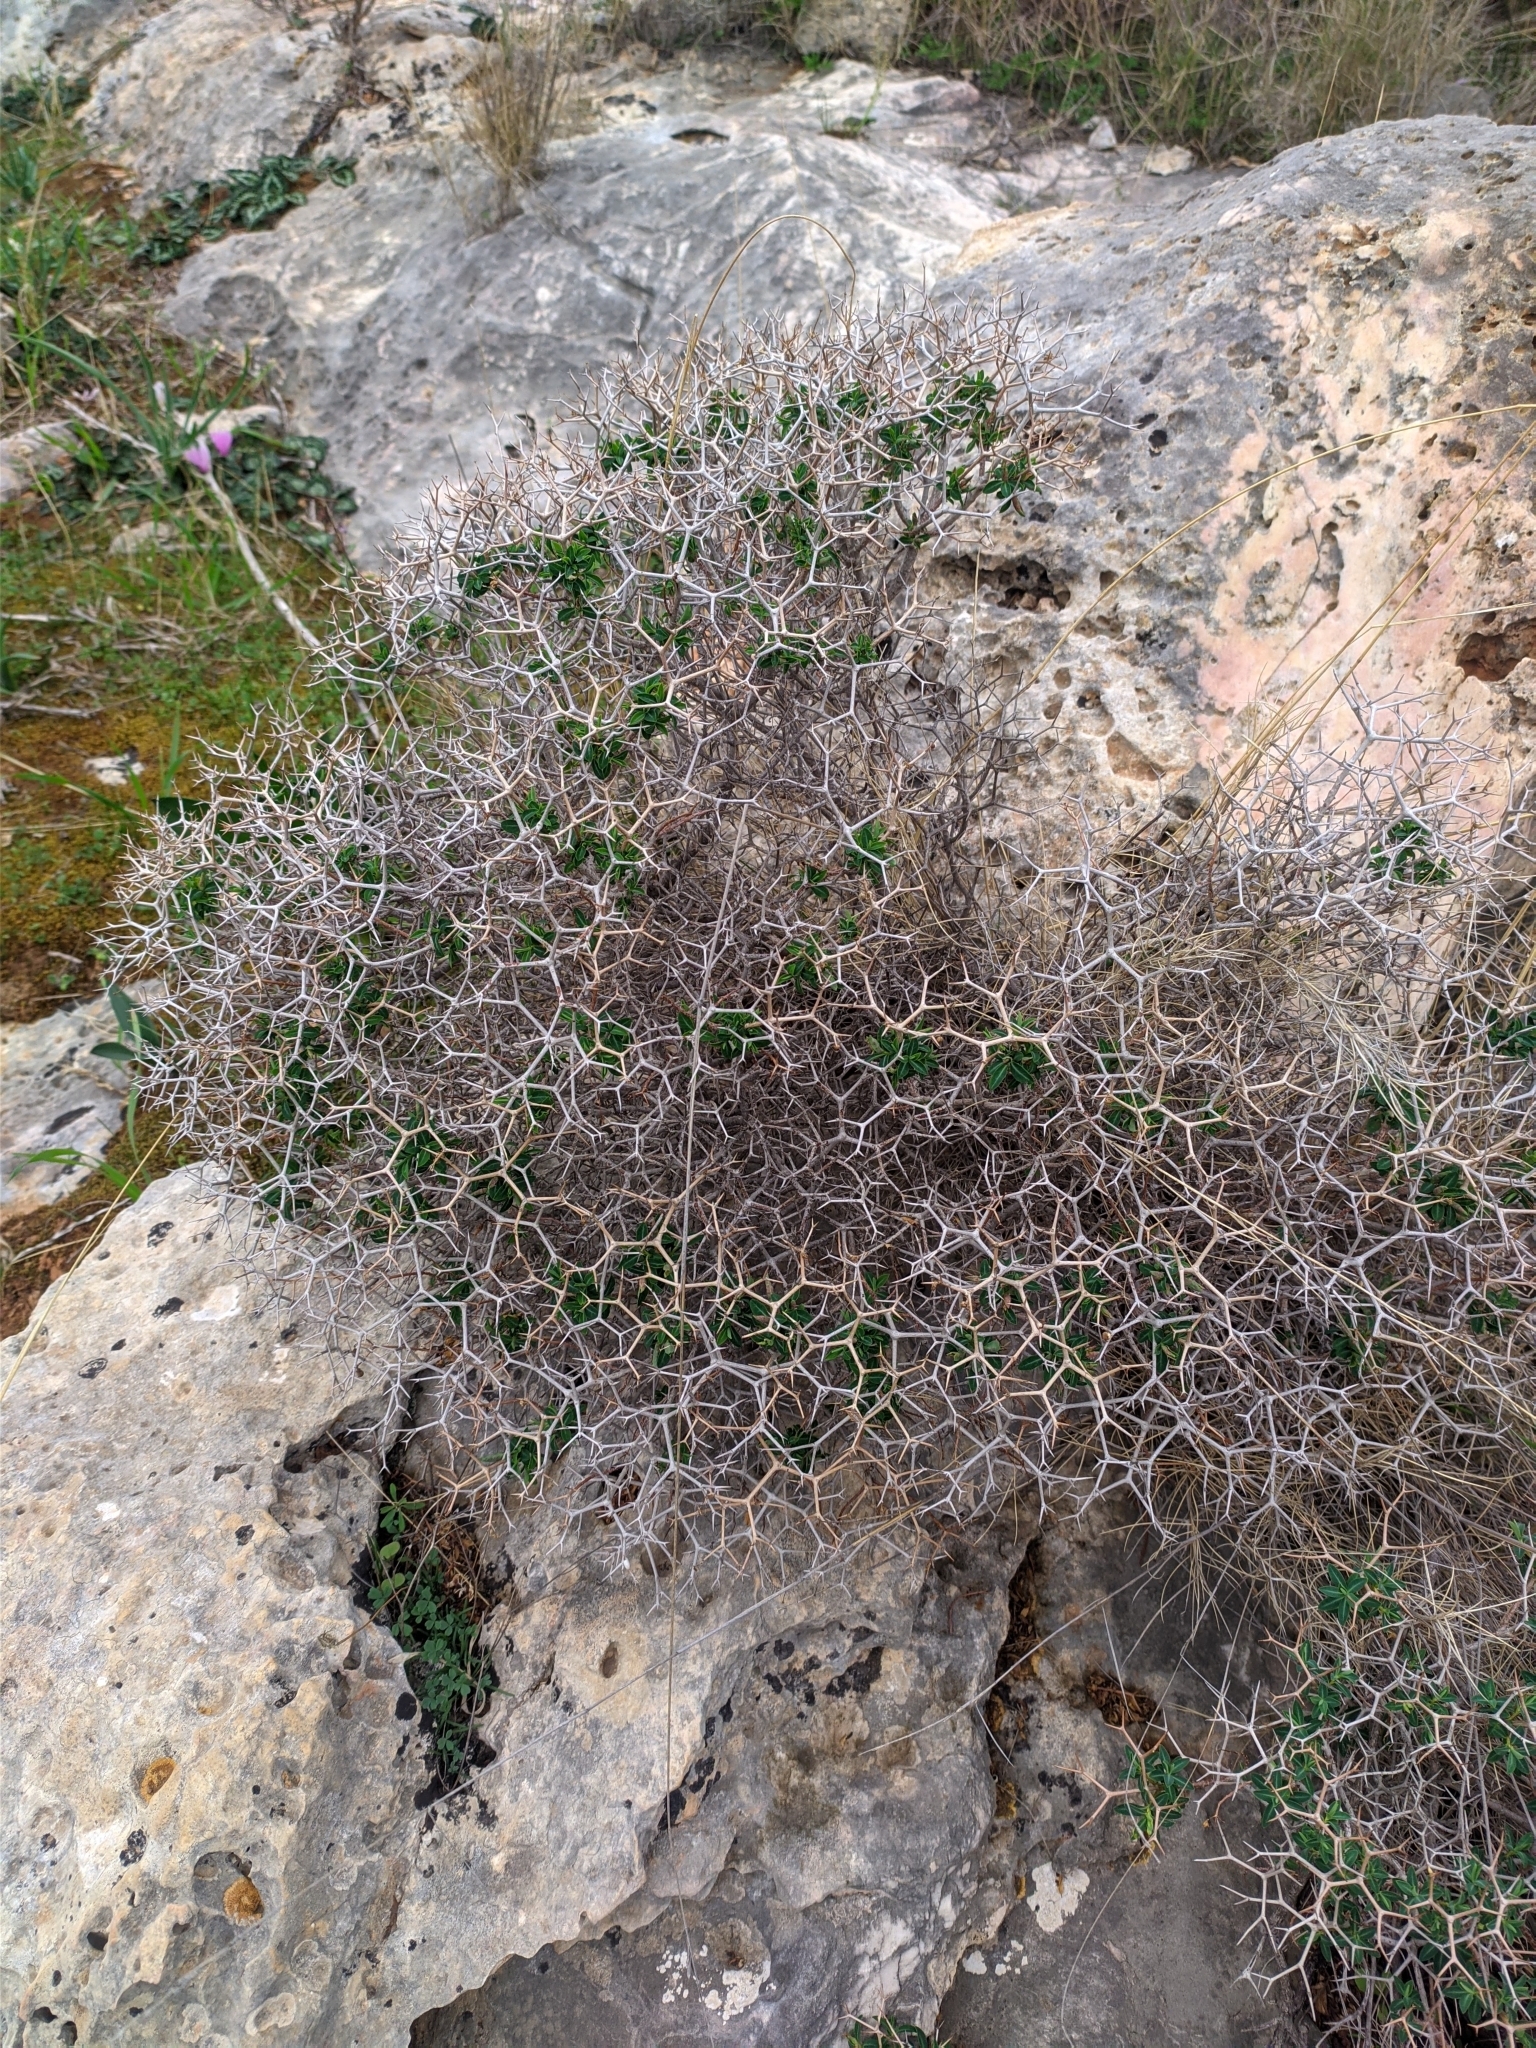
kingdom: Plantae
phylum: Tracheophyta
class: Magnoliopsida
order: Malpighiales
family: Euphorbiaceae
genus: Euphorbia
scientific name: Euphorbia acanthothamnos
